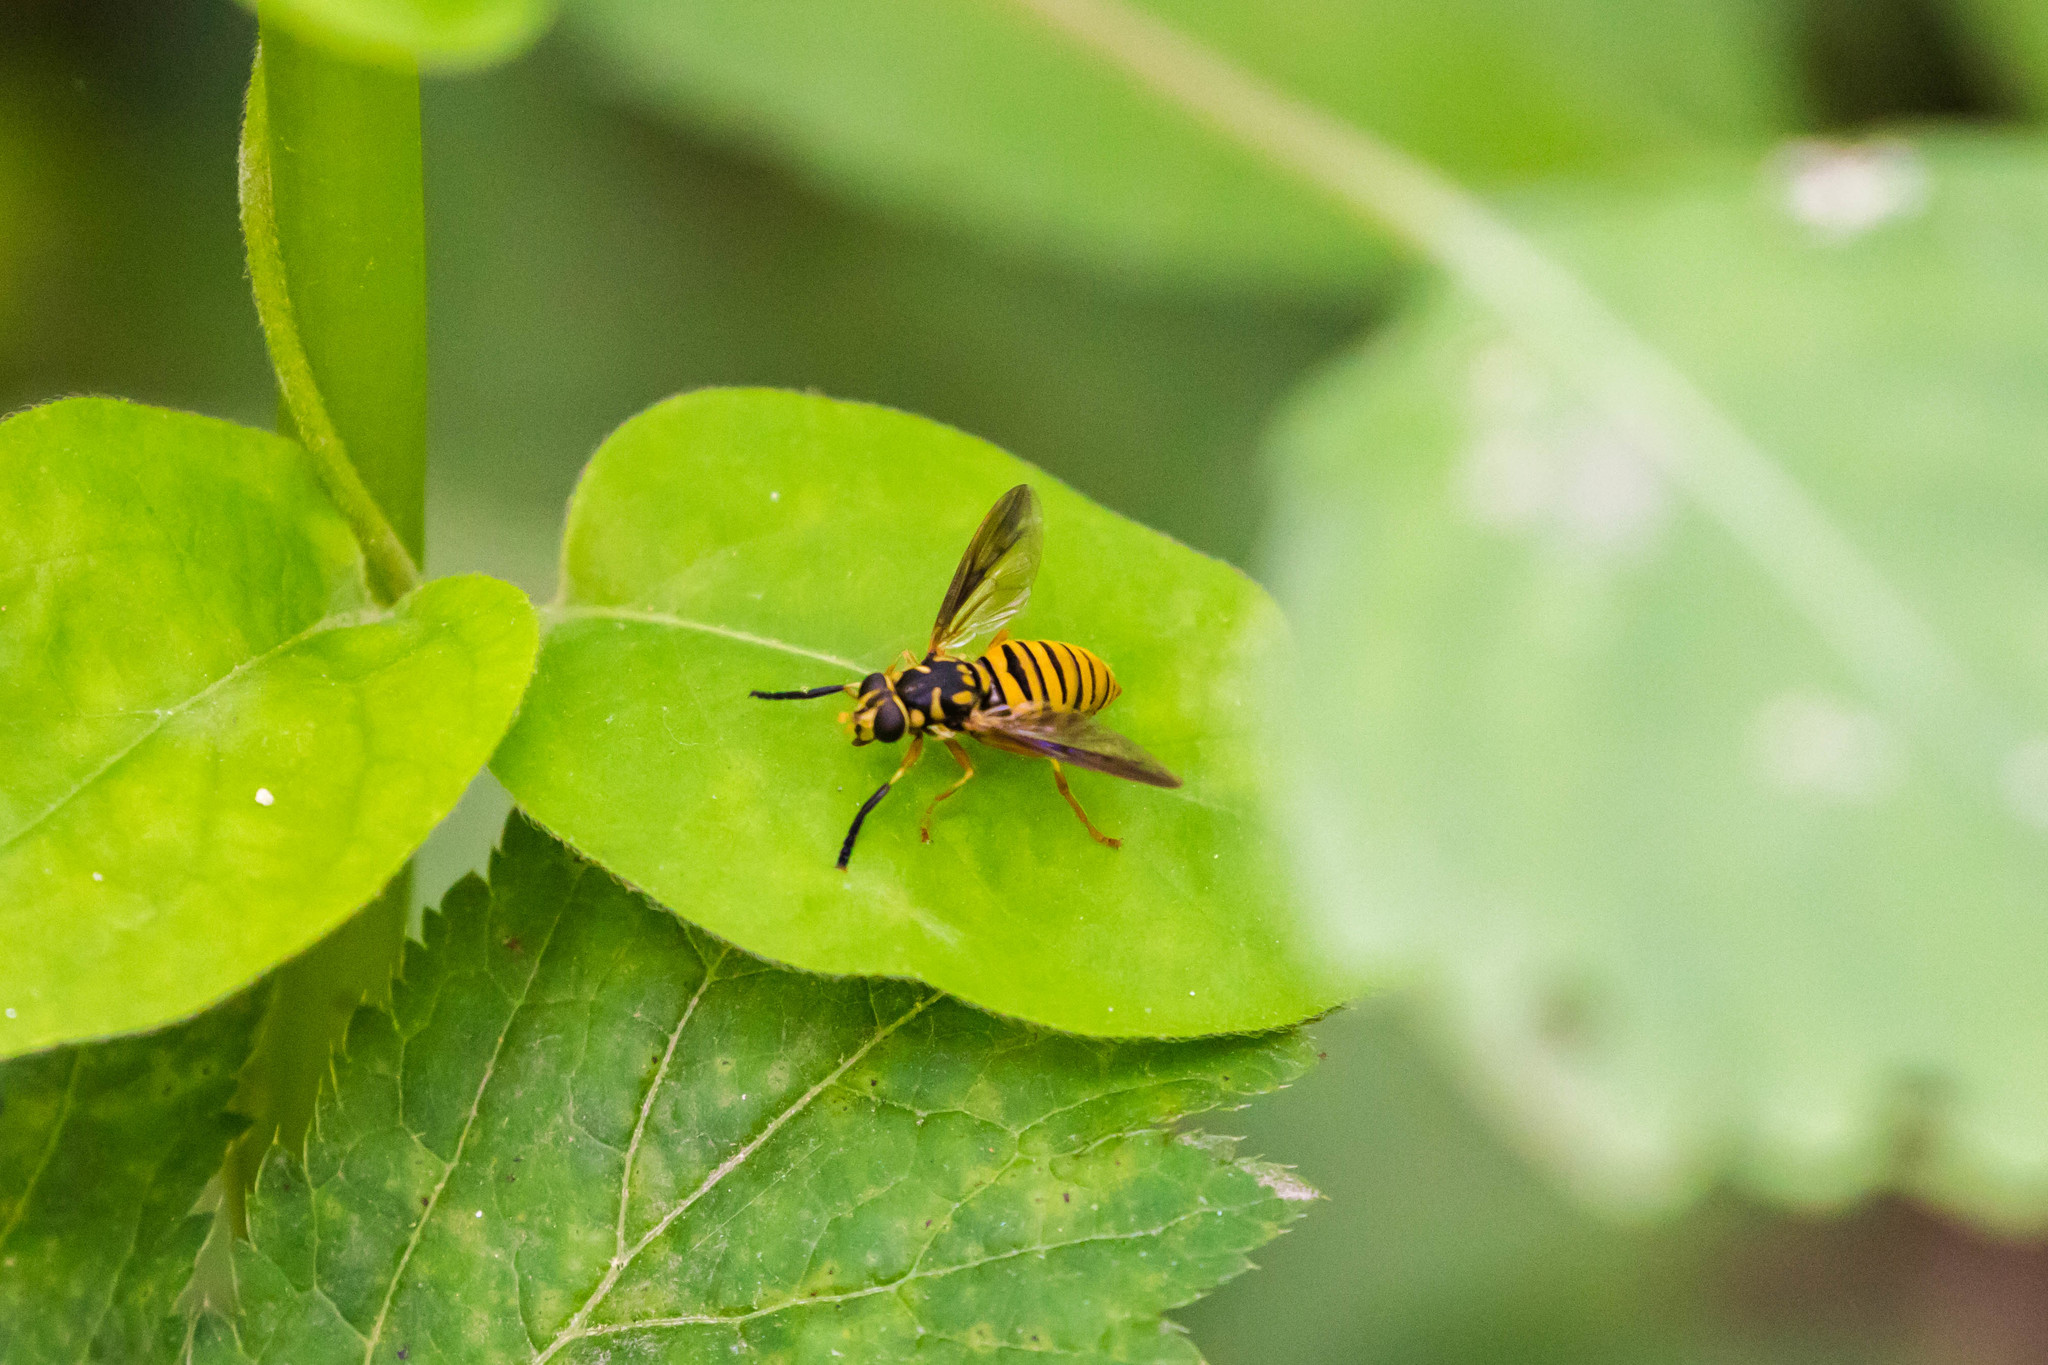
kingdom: Animalia
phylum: Arthropoda
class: Insecta
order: Diptera
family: Syrphidae
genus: Temnostoma
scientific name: Temnostoma daochum
